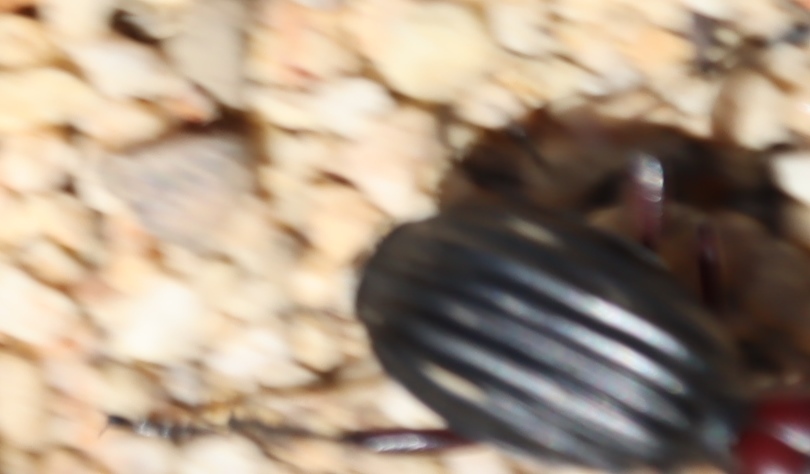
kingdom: Animalia
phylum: Arthropoda
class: Insecta
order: Coleoptera
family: Carabidae
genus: Anthia
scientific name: Anthia decemguttata
